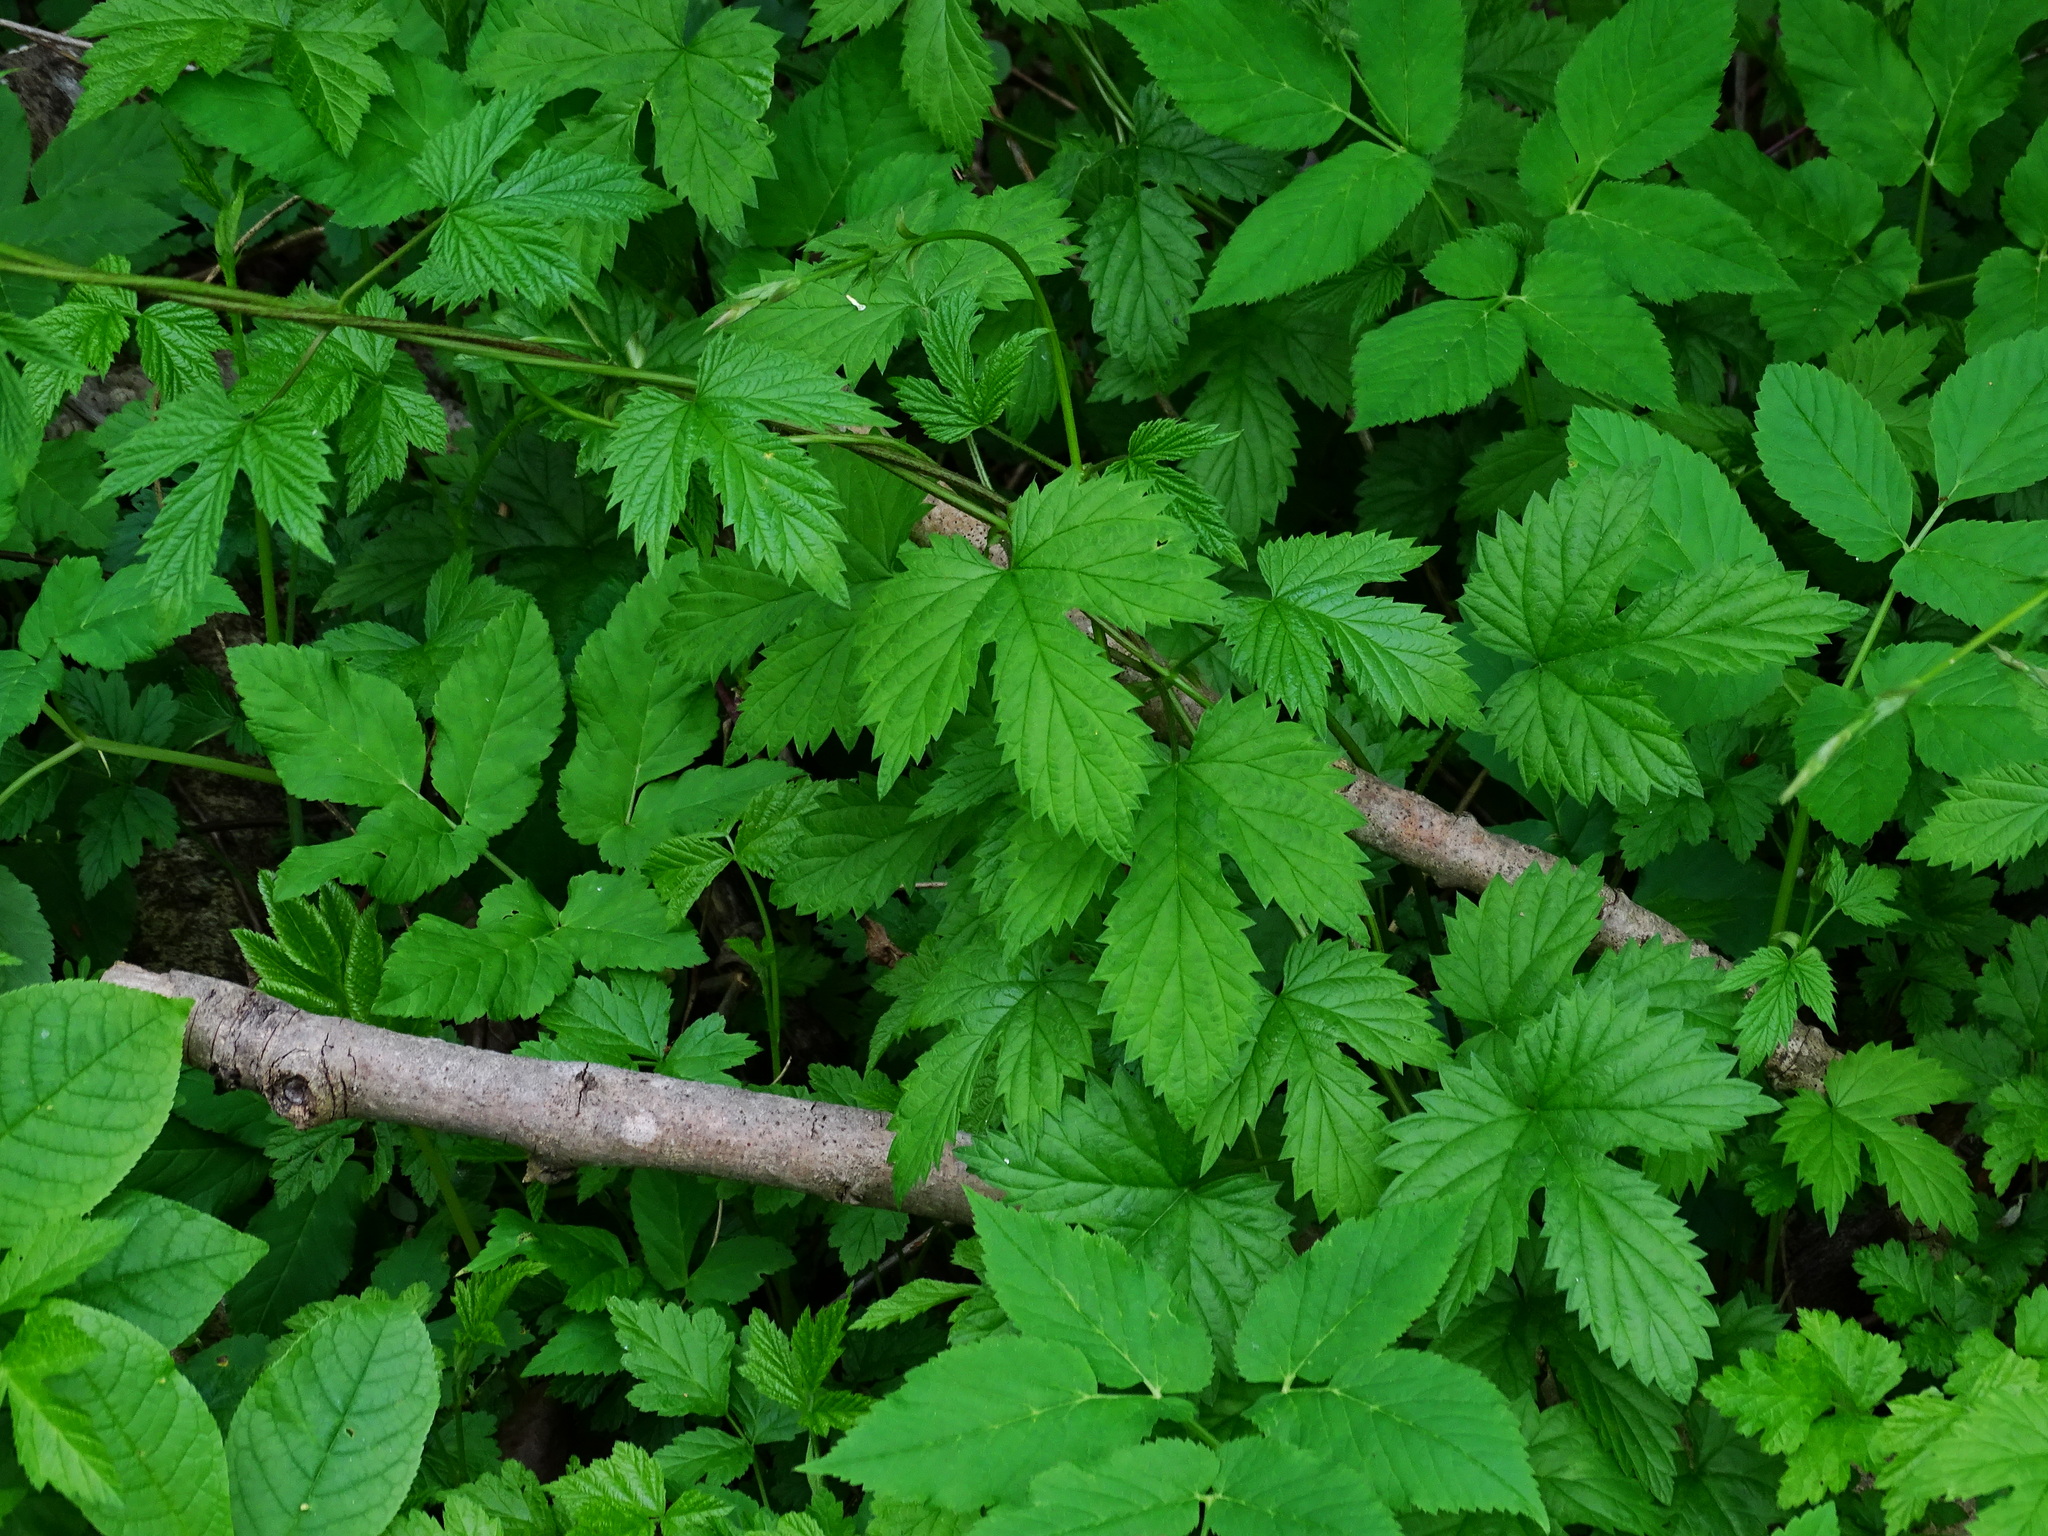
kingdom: Plantae
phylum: Tracheophyta
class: Magnoliopsida
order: Rosales
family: Cannabaceae
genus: Humulus
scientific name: Humulus lupulus
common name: Hop
